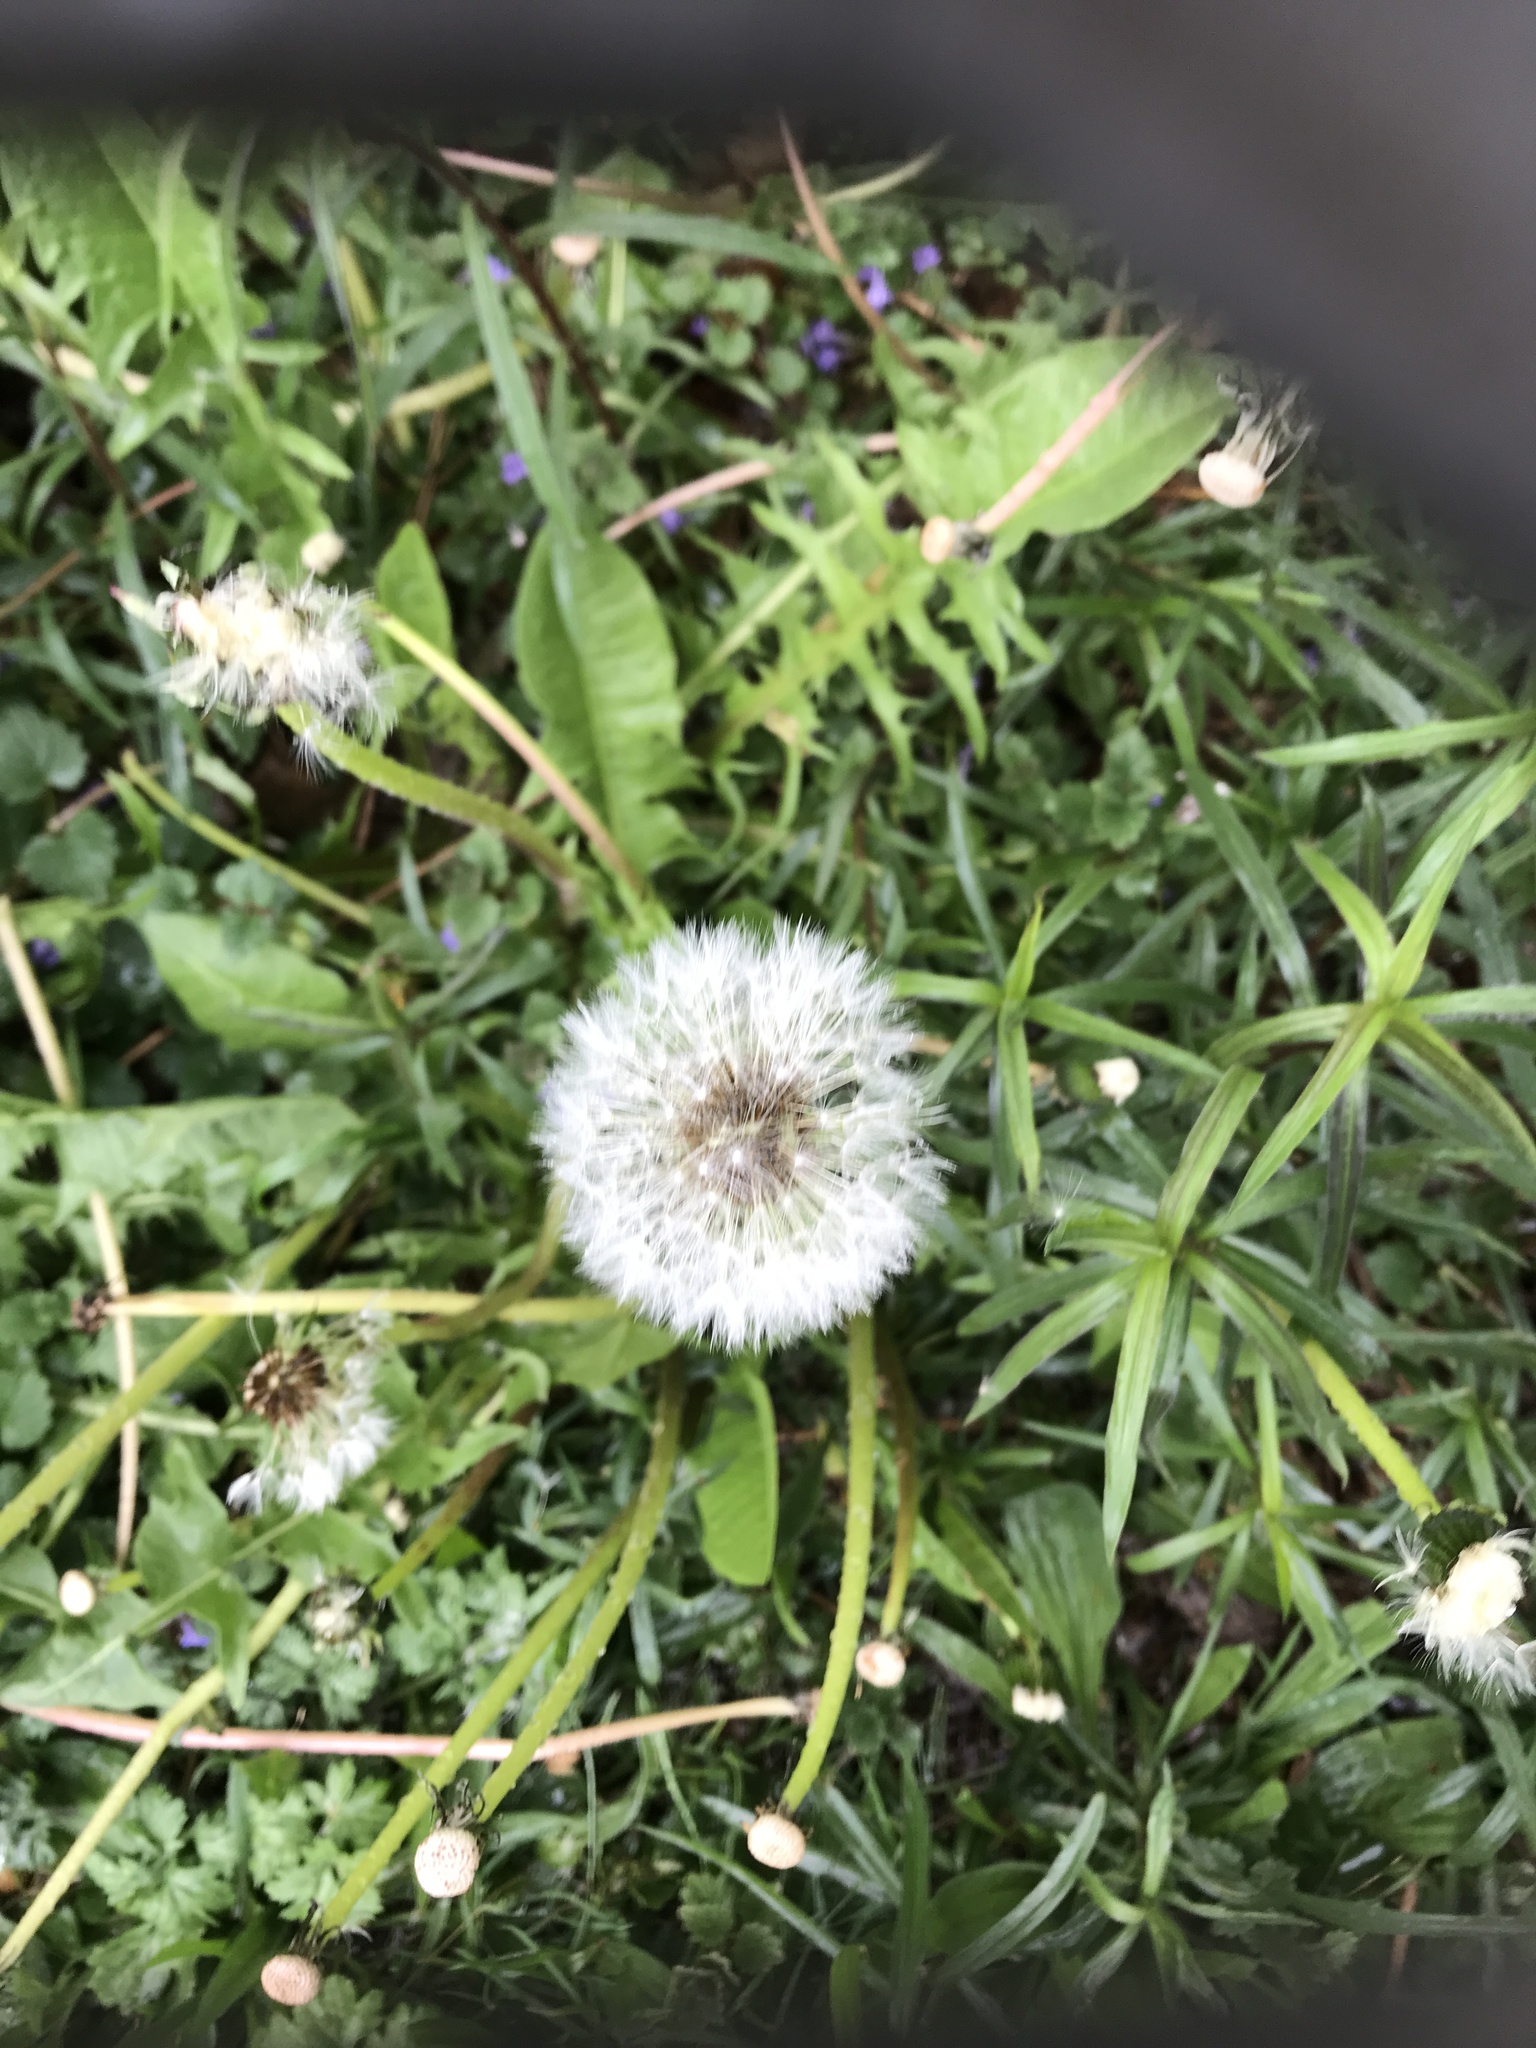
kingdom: Plantae
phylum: Tracheophyta
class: Magnoliopsida
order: Asterales
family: Asteraceae
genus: Taraxacum
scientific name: Taraxacum officinale
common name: Common dandelion
